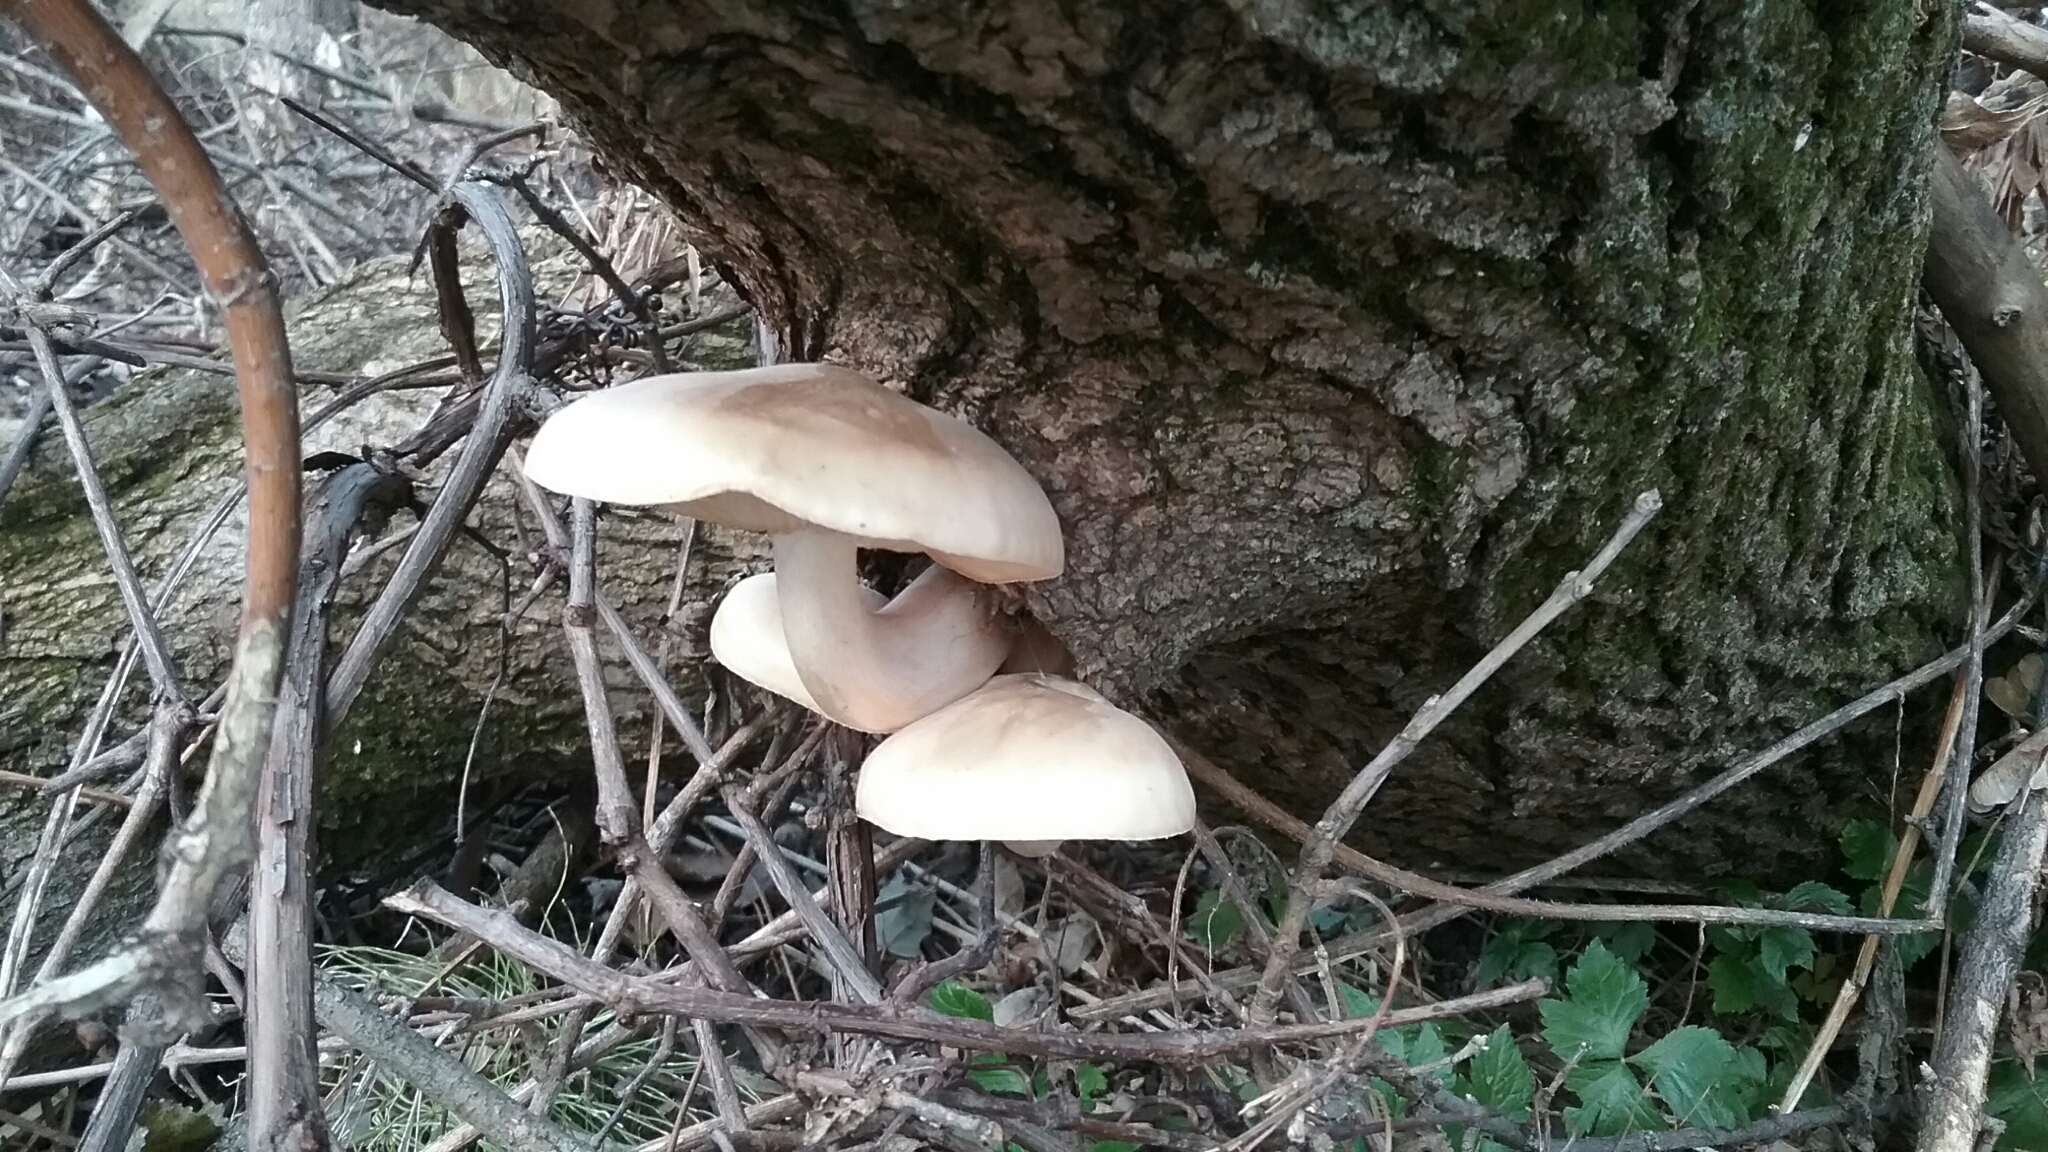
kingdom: Fungi
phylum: Basidiomycota
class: Agaricomycetes
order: Agaricales
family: Lyophyllaceae
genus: Hypsizygus
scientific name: Hypsizygus ulmarius
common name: Elm leech
